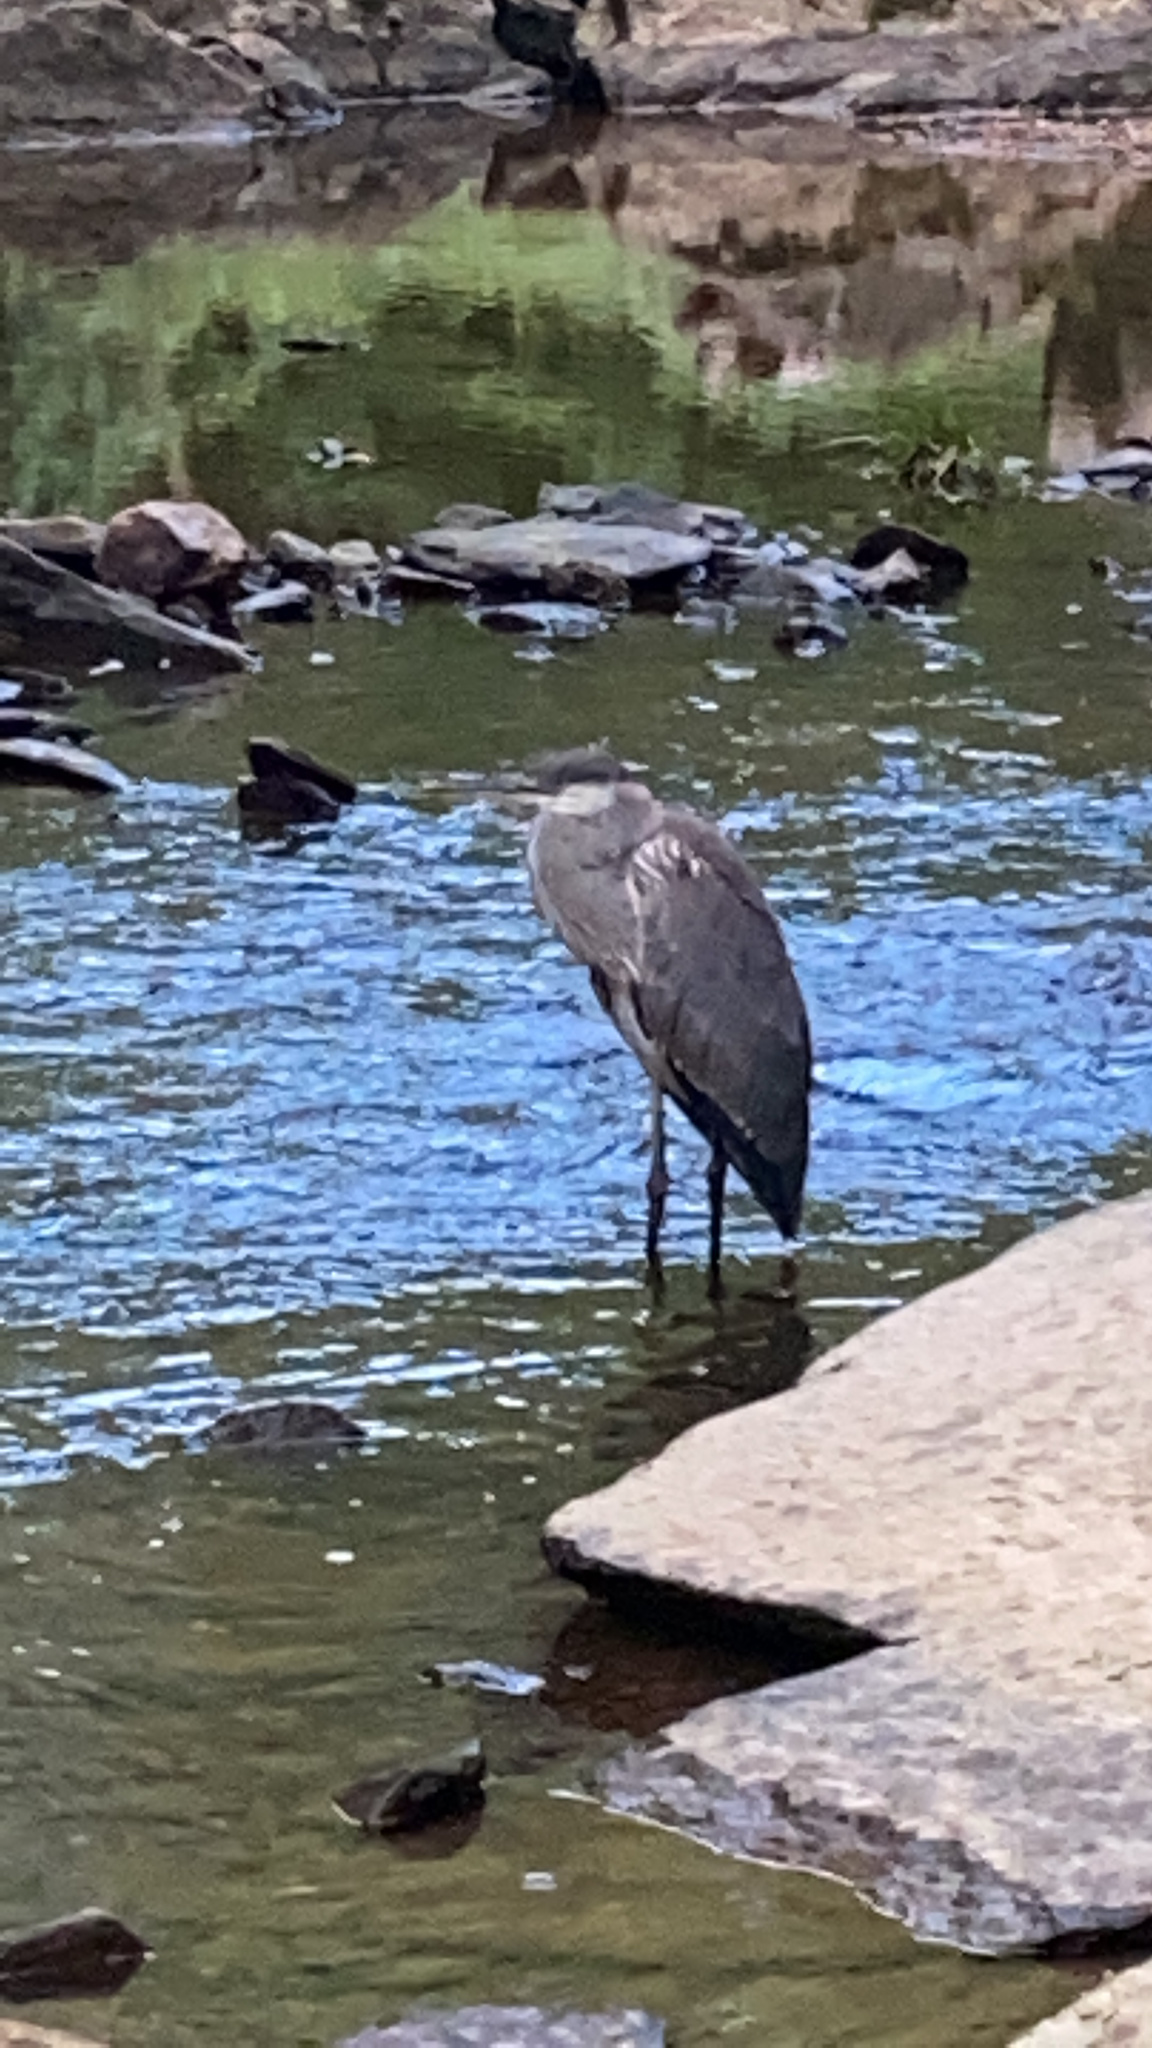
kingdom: Animalia
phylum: Chordata
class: Aves
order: Pelecaniformes
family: Ardeidae
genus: Ardea
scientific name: Ardea herodias
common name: Great blue heron
